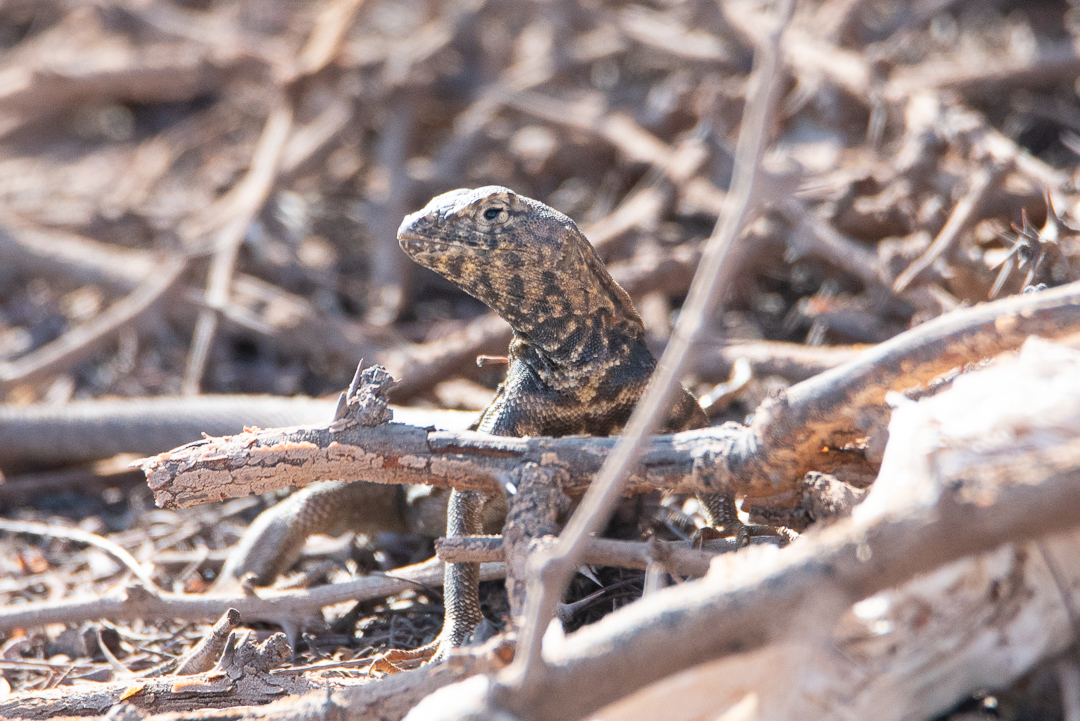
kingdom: Animalia
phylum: Chordata
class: Squamata
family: Tropiduridae
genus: Microlophus
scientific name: Microlophus theresioides
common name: Small pacific iguana
